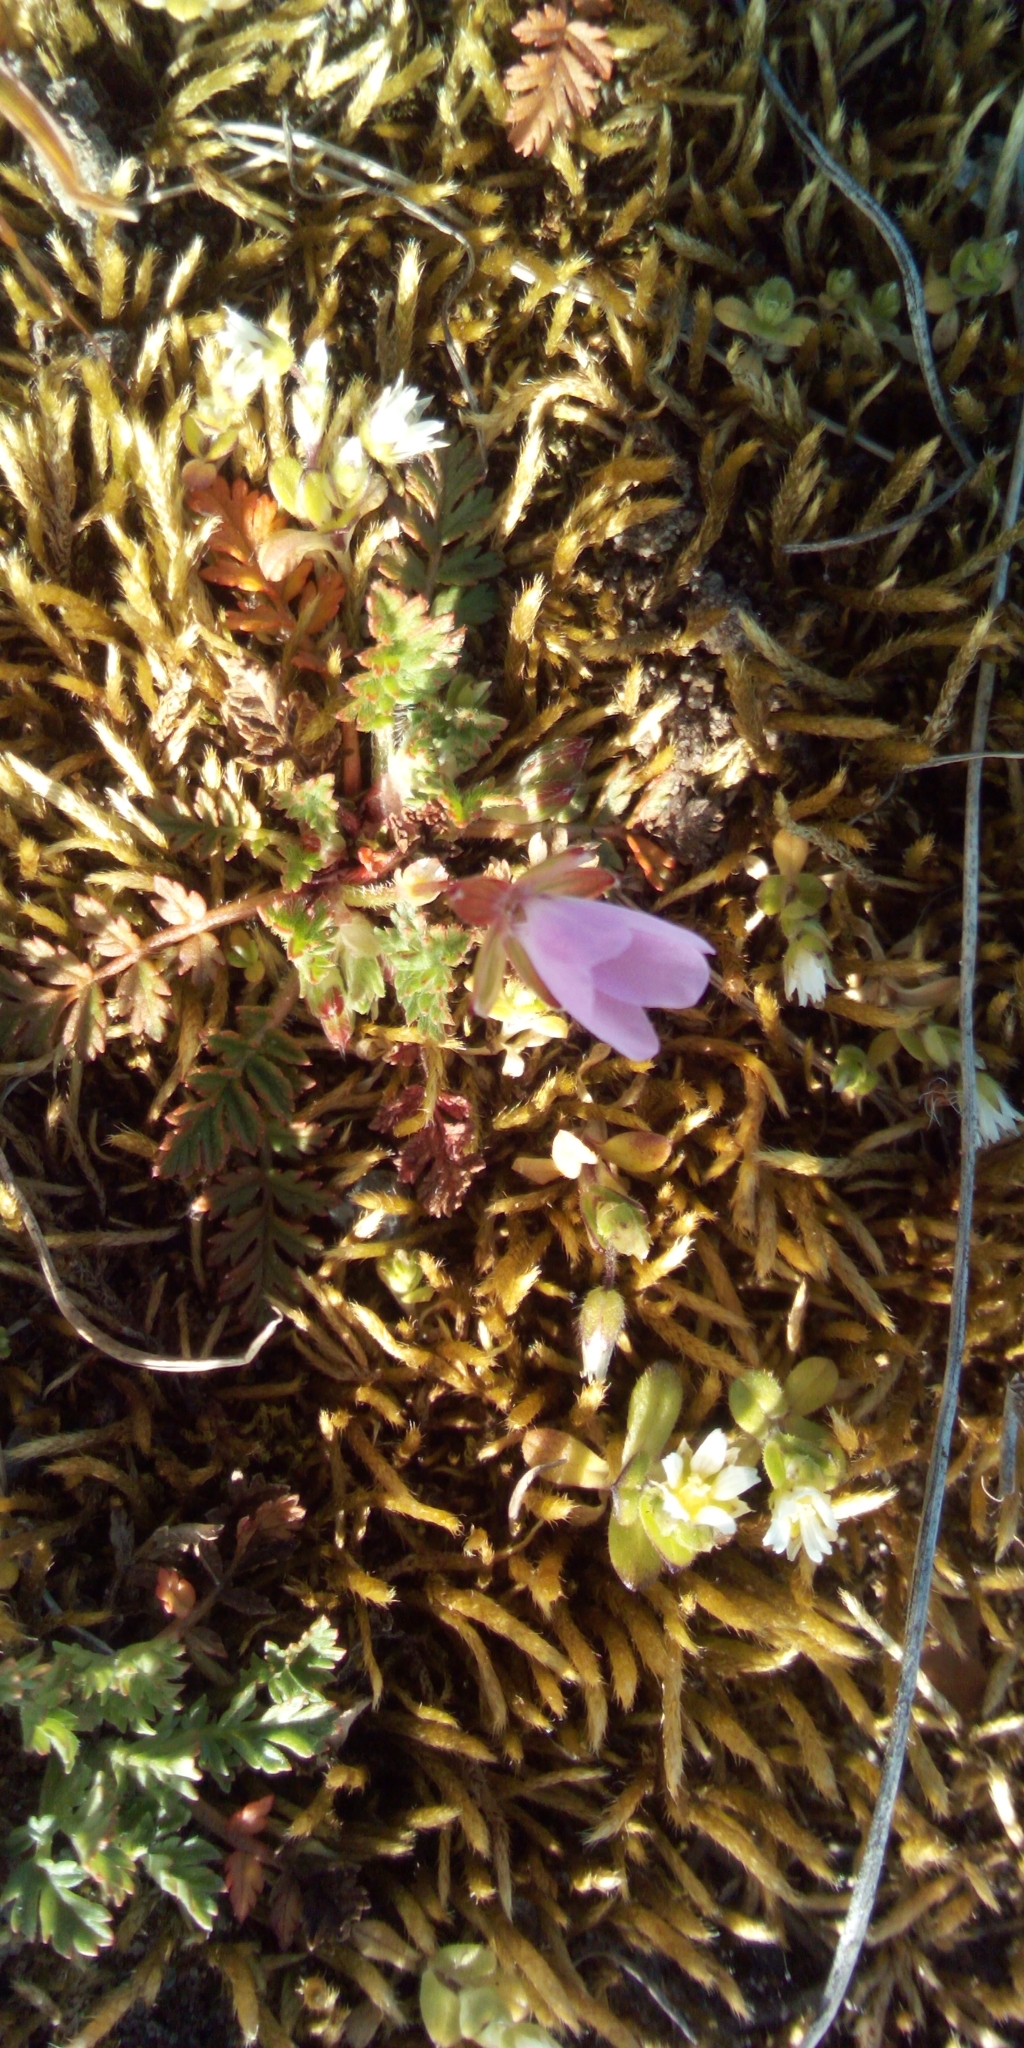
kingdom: Plantae
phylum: Tracheophyta
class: Magnoliopsida
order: Geraniales
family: Geraniaceae
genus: Erodium
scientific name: Erodium cicutarium
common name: Common stork's-bill
